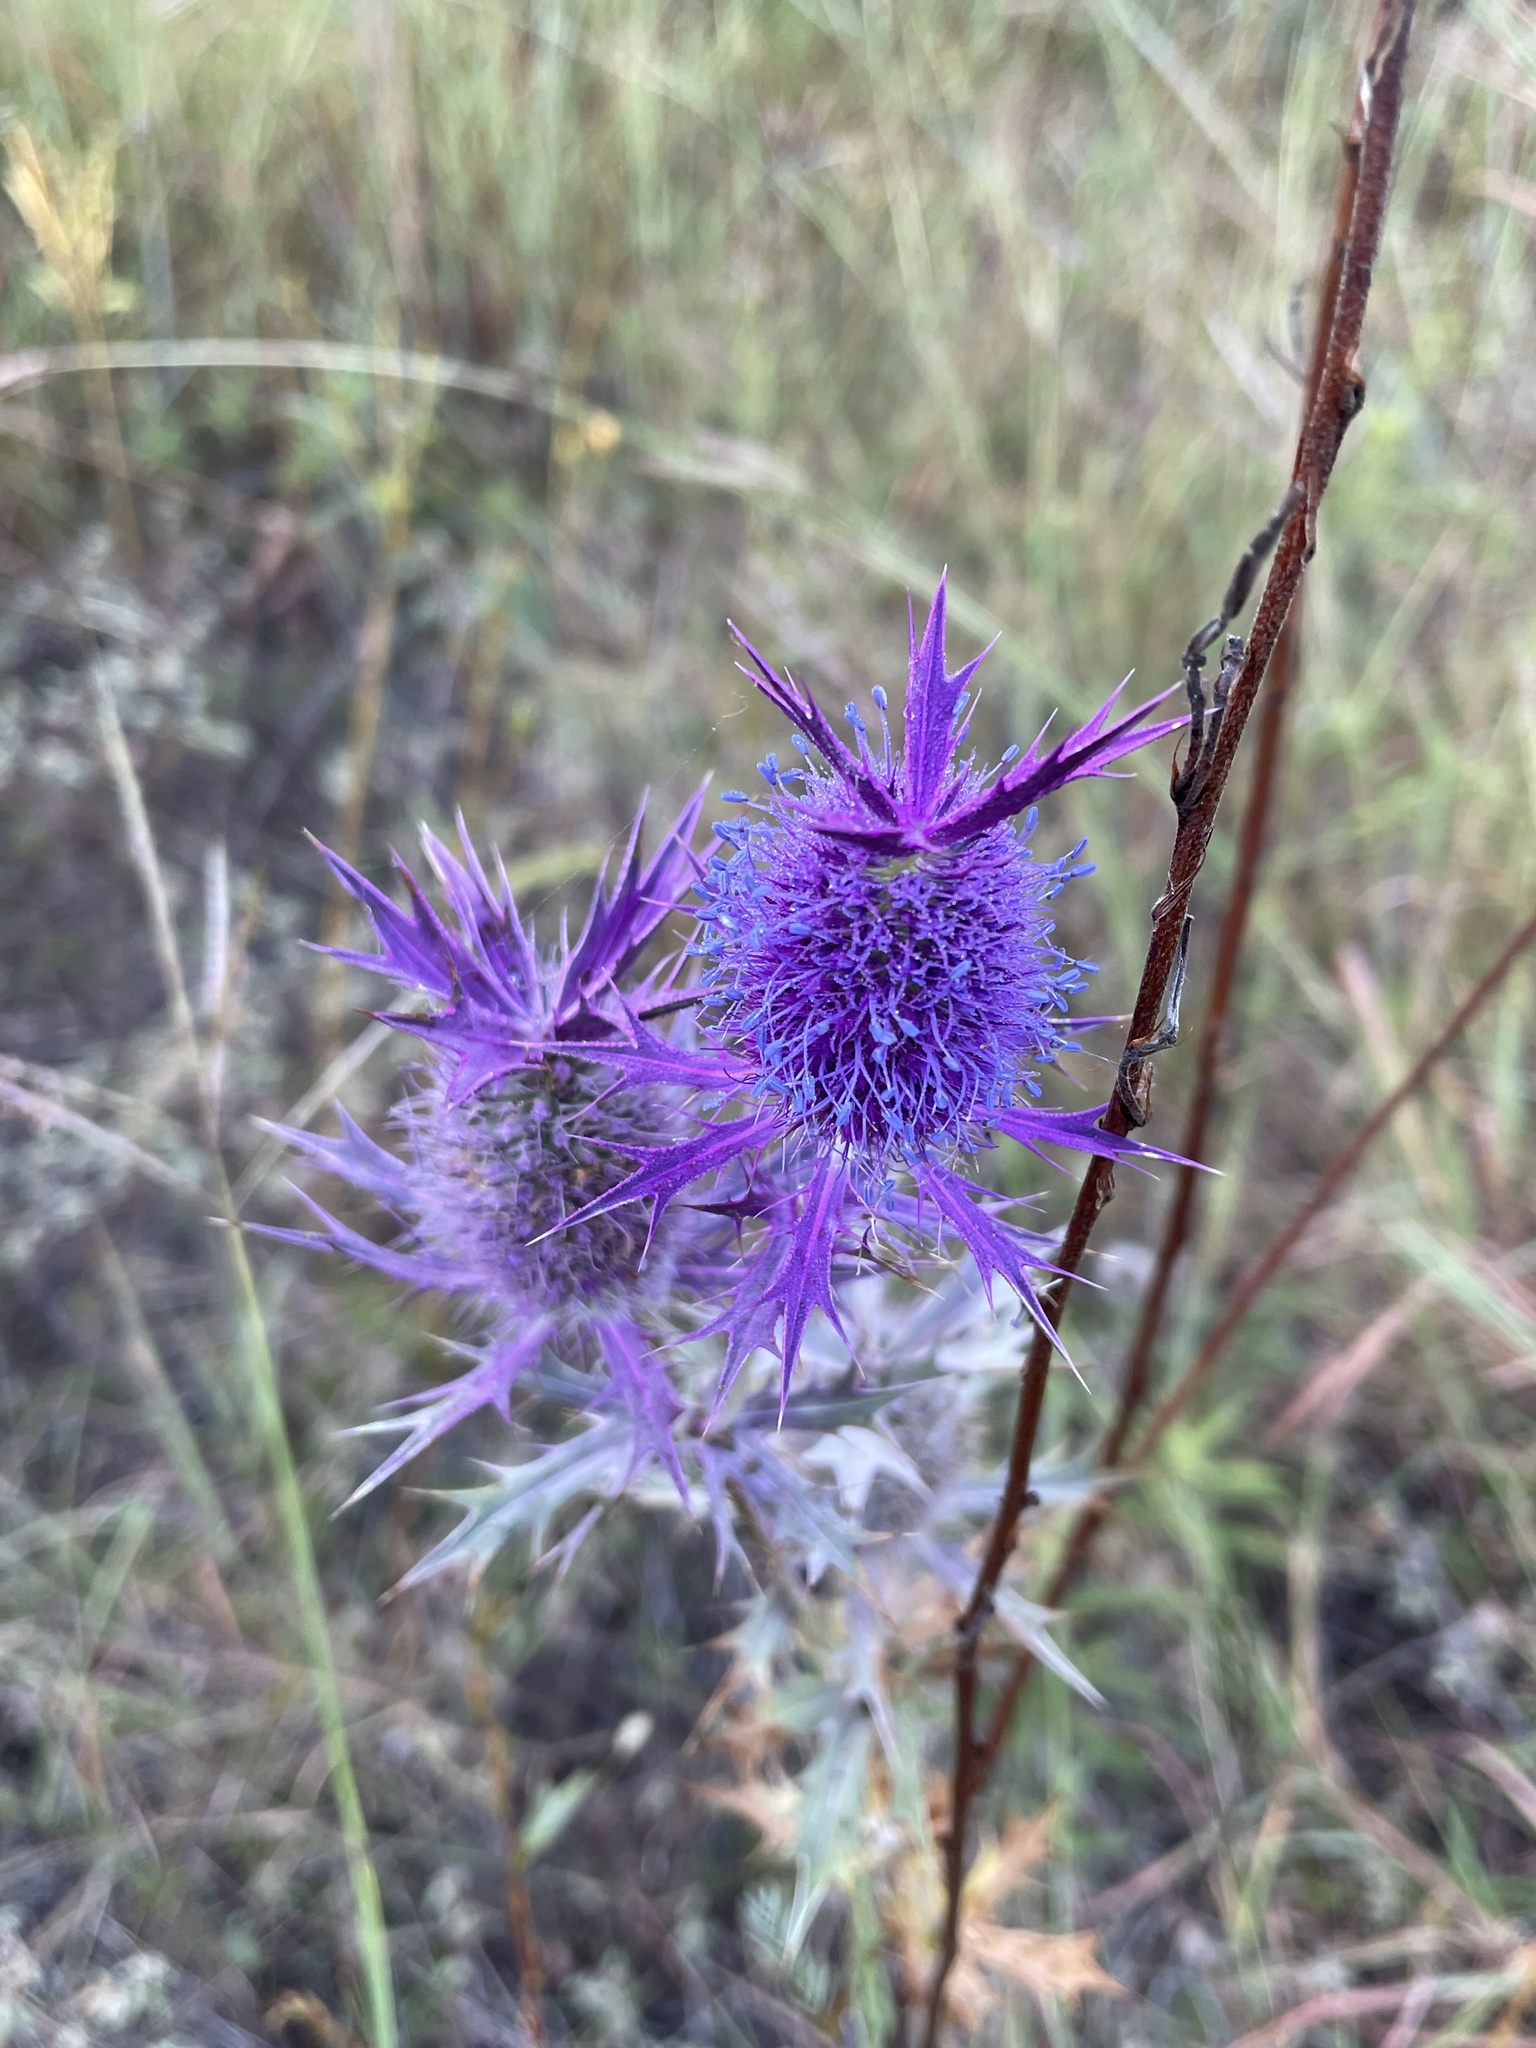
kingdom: Plantae
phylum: Tracheophyta
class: Magnoliopsida
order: Apiales
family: Apiaceae
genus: Eryngium
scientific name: Eryngium leavenworthii
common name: Leavenworth's eryngo
